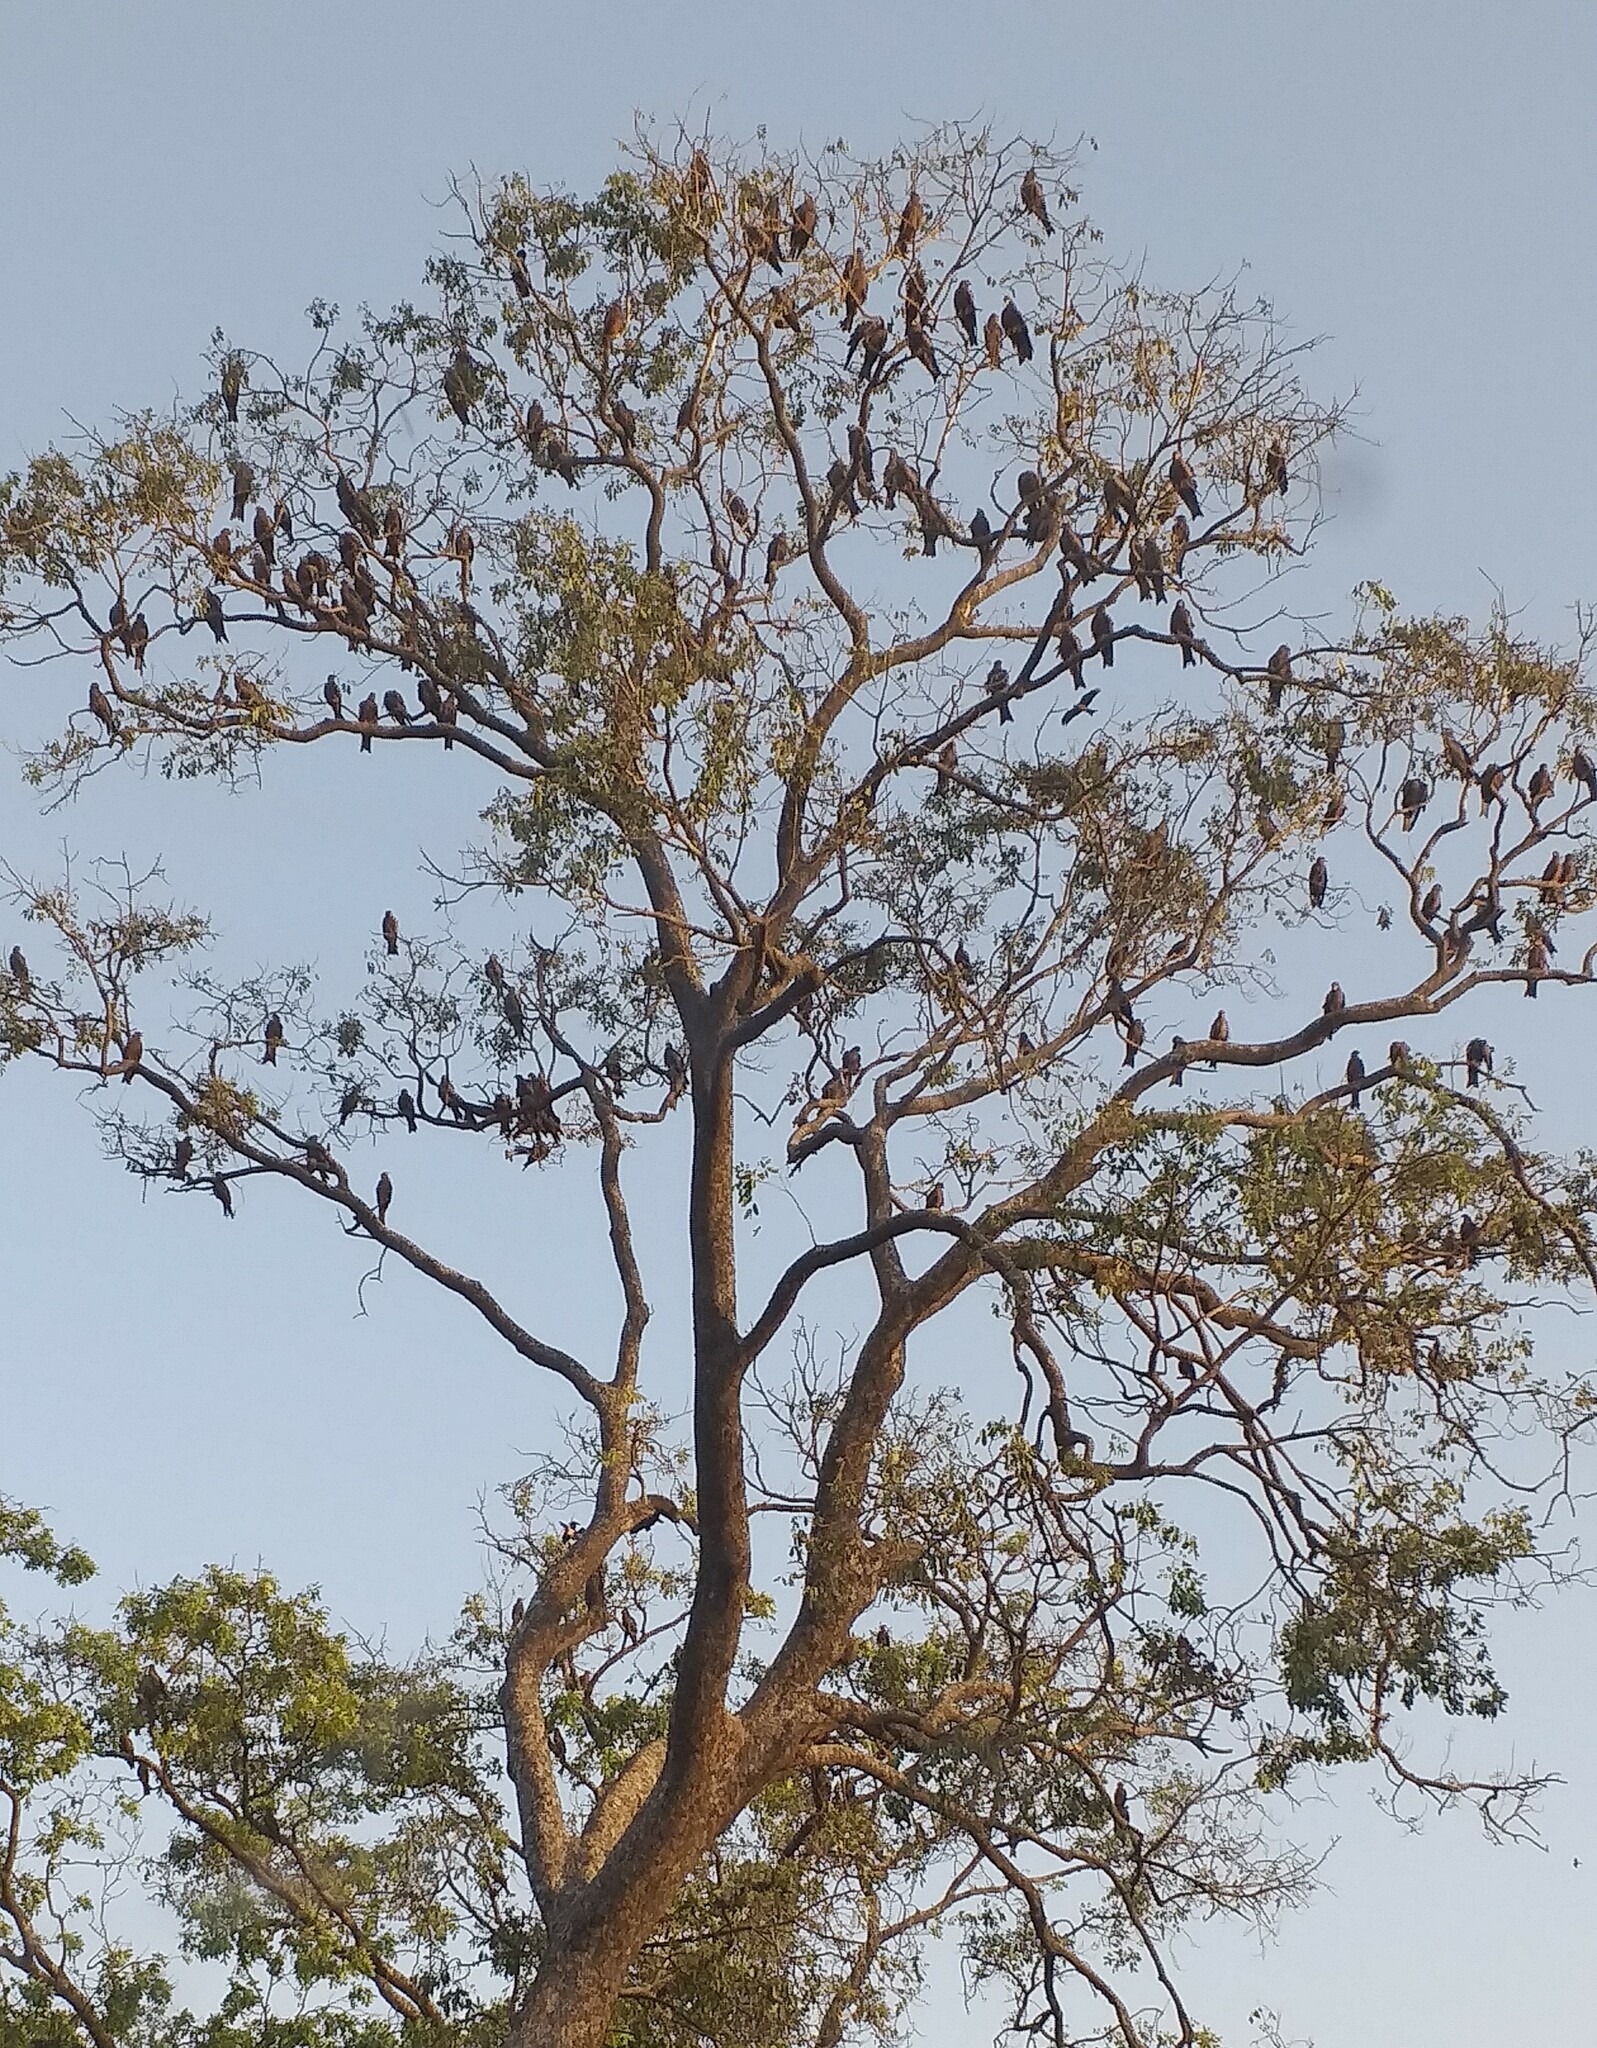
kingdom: Animalia
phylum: Chordata
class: Aves
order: Accipitriformes
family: Accipitridae
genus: Milvus
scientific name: Milvus migrans
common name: Black kite
